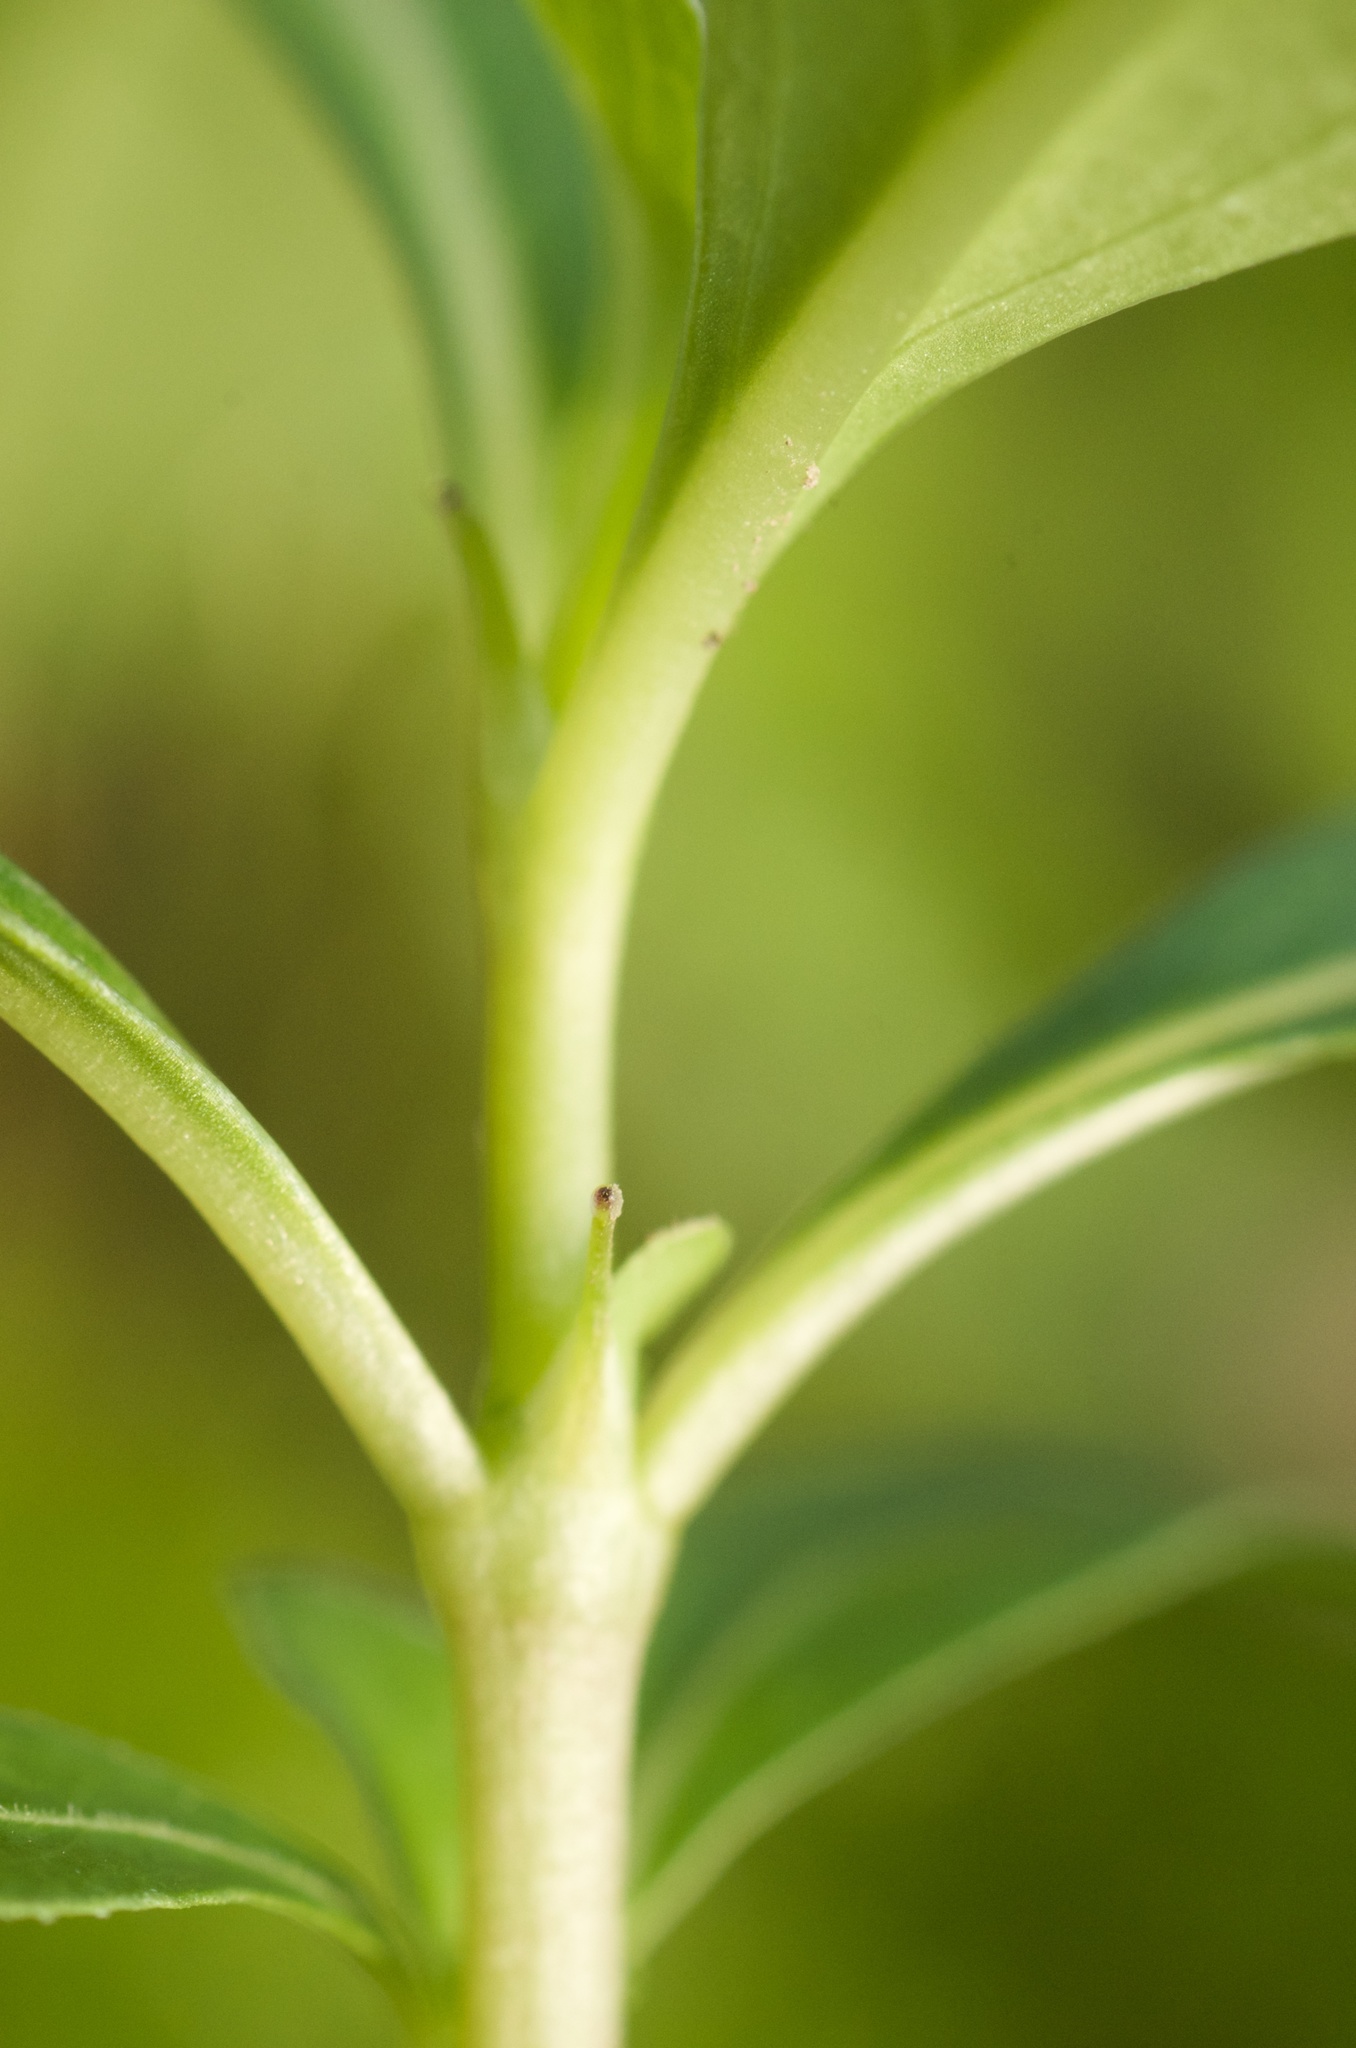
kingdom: Plantae
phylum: Tracheophyta
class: Magnoliopsida
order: Gentianales
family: Rubiaceae
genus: Coprosma
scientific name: Coprosma robusta
